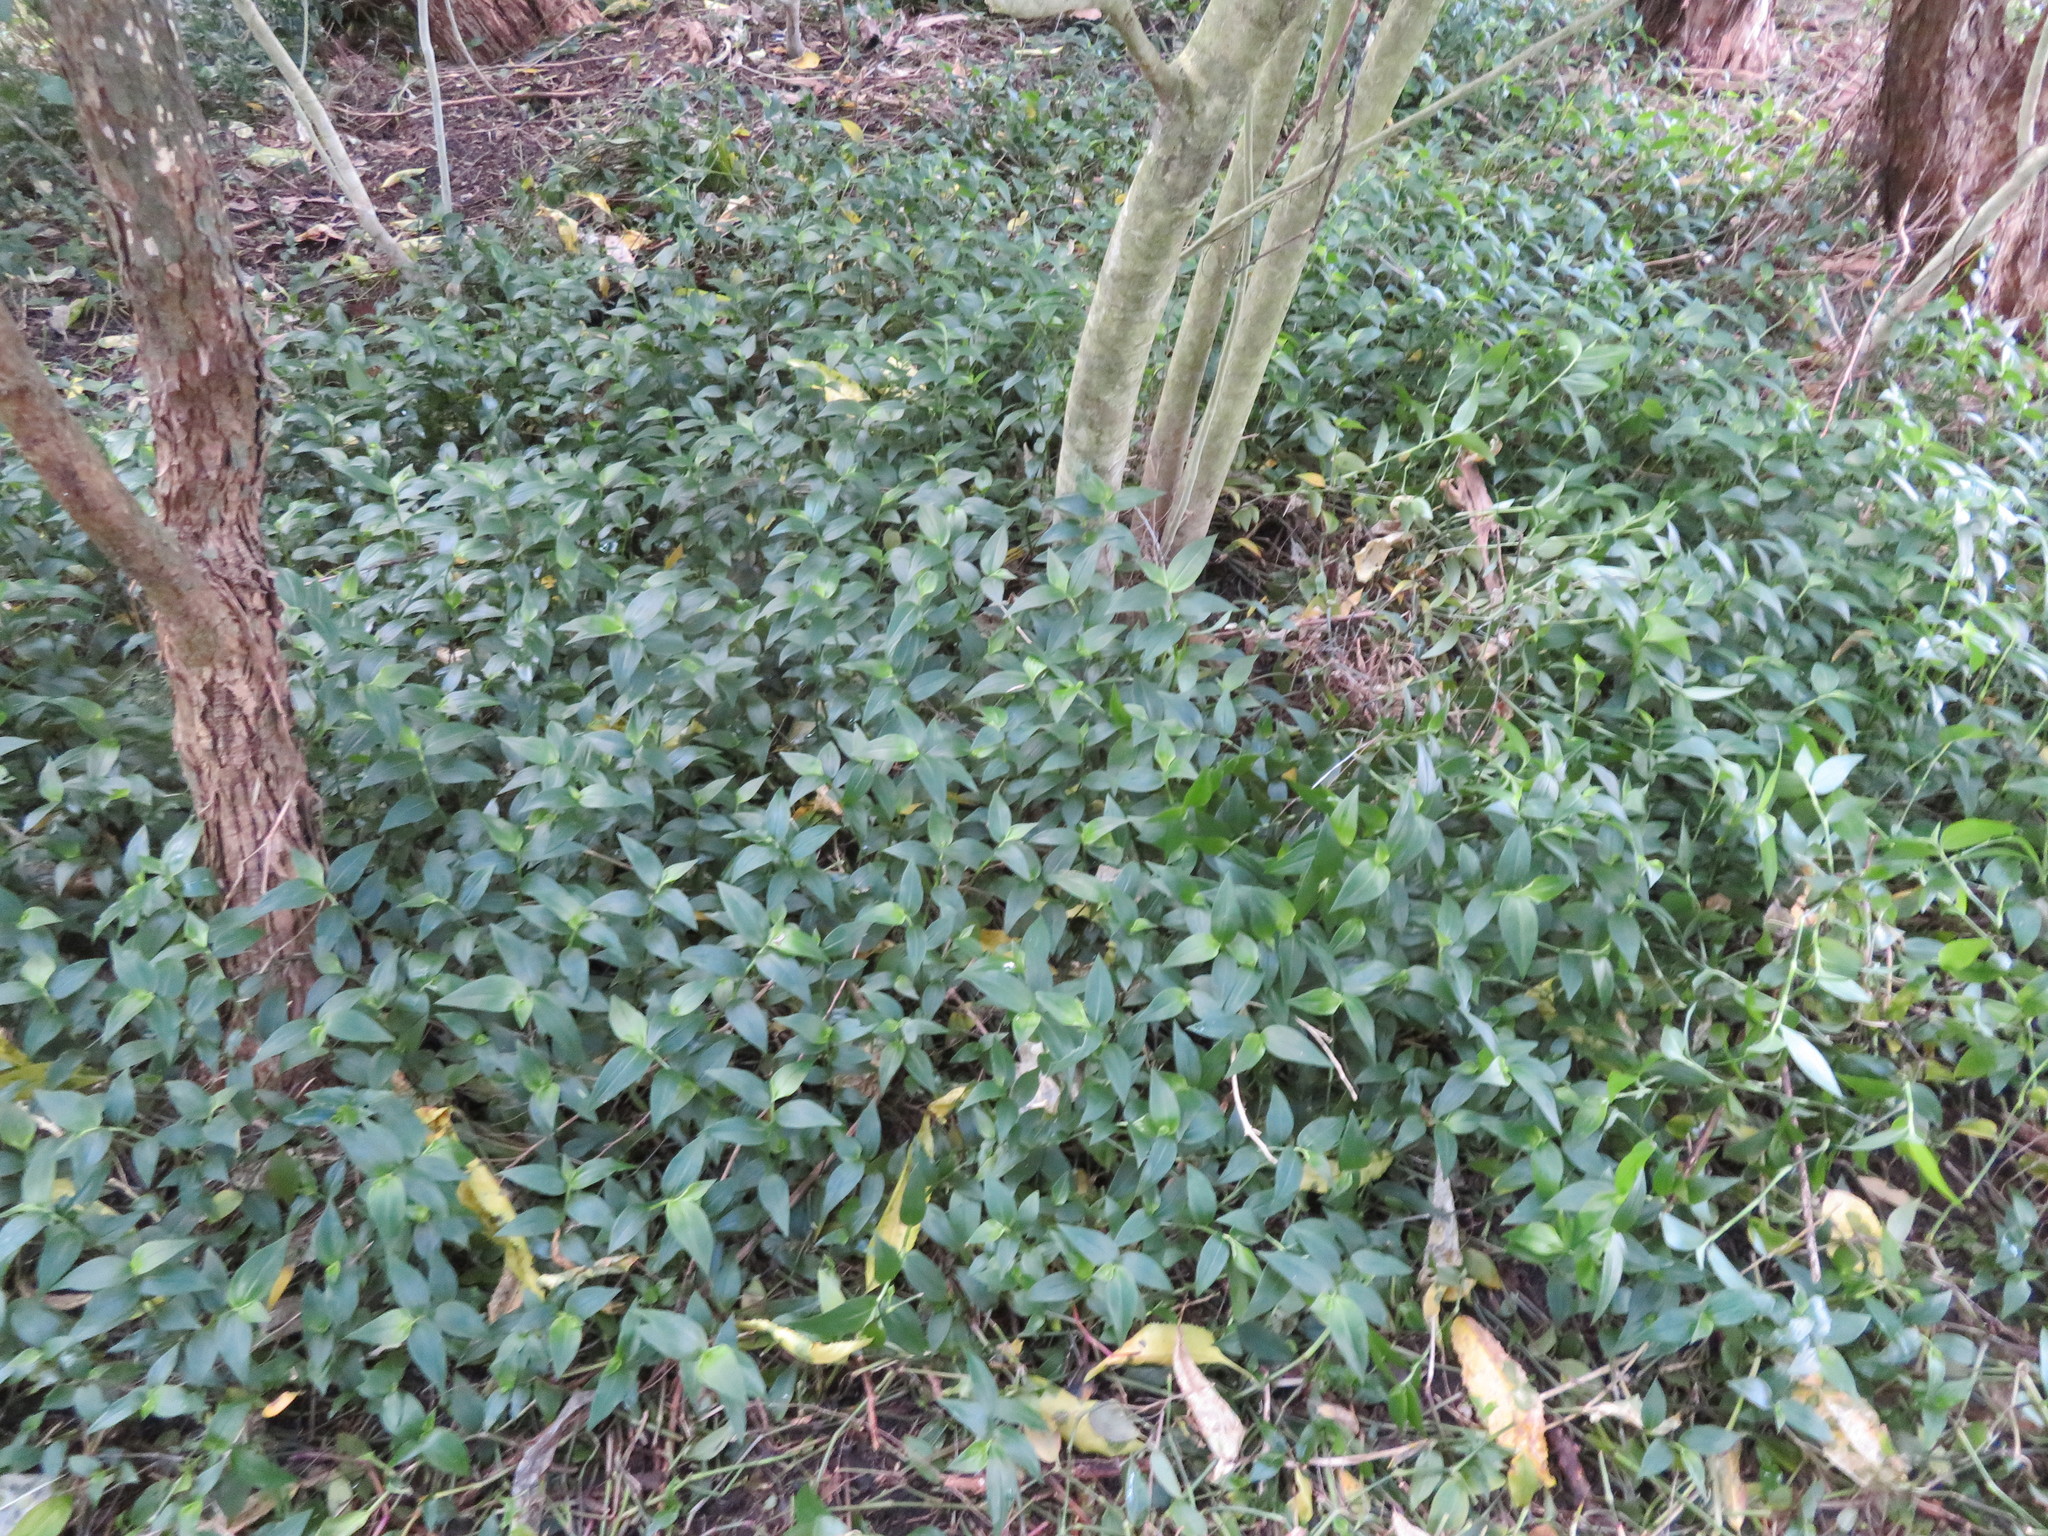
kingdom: Plantae
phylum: Tracheophyta
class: Liliopsida
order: Commelinales
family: Commelinaceae
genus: Tradescantia
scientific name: Tradescantia fluminensis
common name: Wandering-jew
